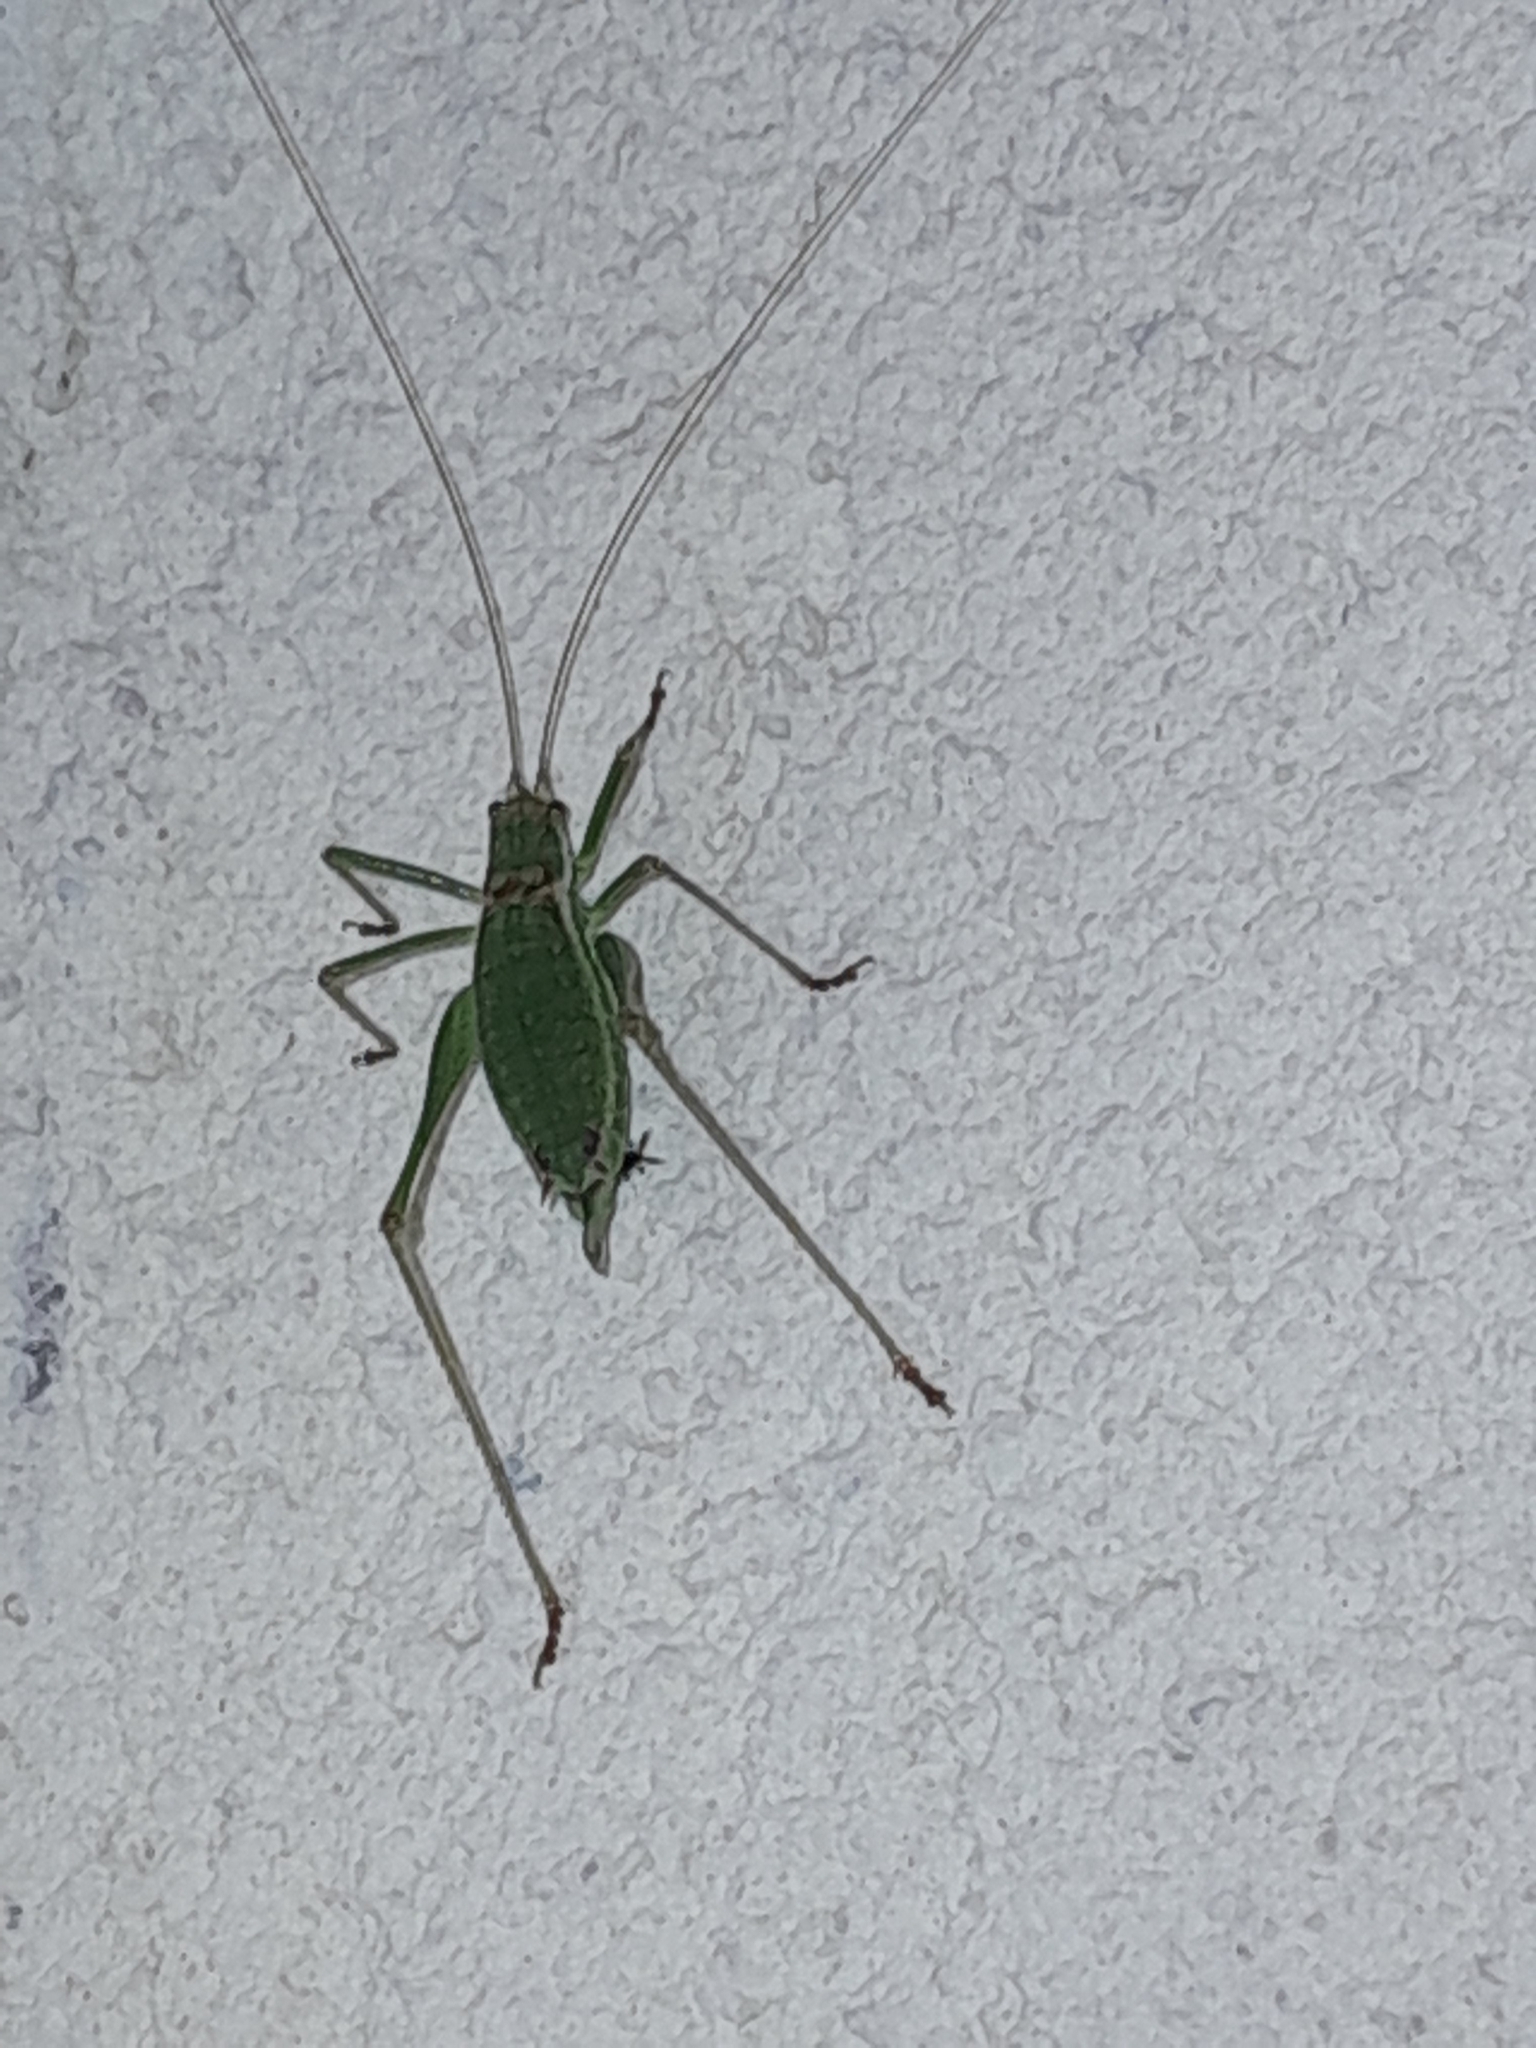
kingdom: Animalia
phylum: Arthropoda
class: Insecta
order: Orthoptera
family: Tettigoniidae
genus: Leptophyes
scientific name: Leptophyes albovittata
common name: Striped bush-cricket
